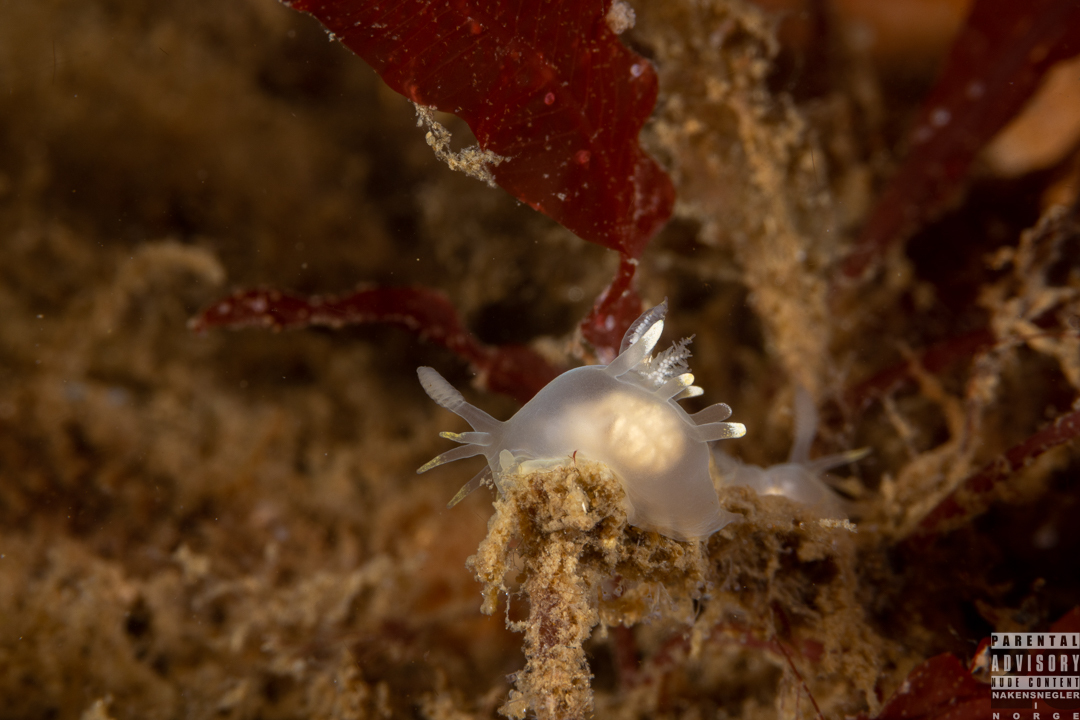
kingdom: Animalia
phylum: Mollusca
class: Gastropoda
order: Nudibranchia
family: Goniodorididae
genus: Ancula
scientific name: Ancula gibbosa
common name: Atlantic ancula
